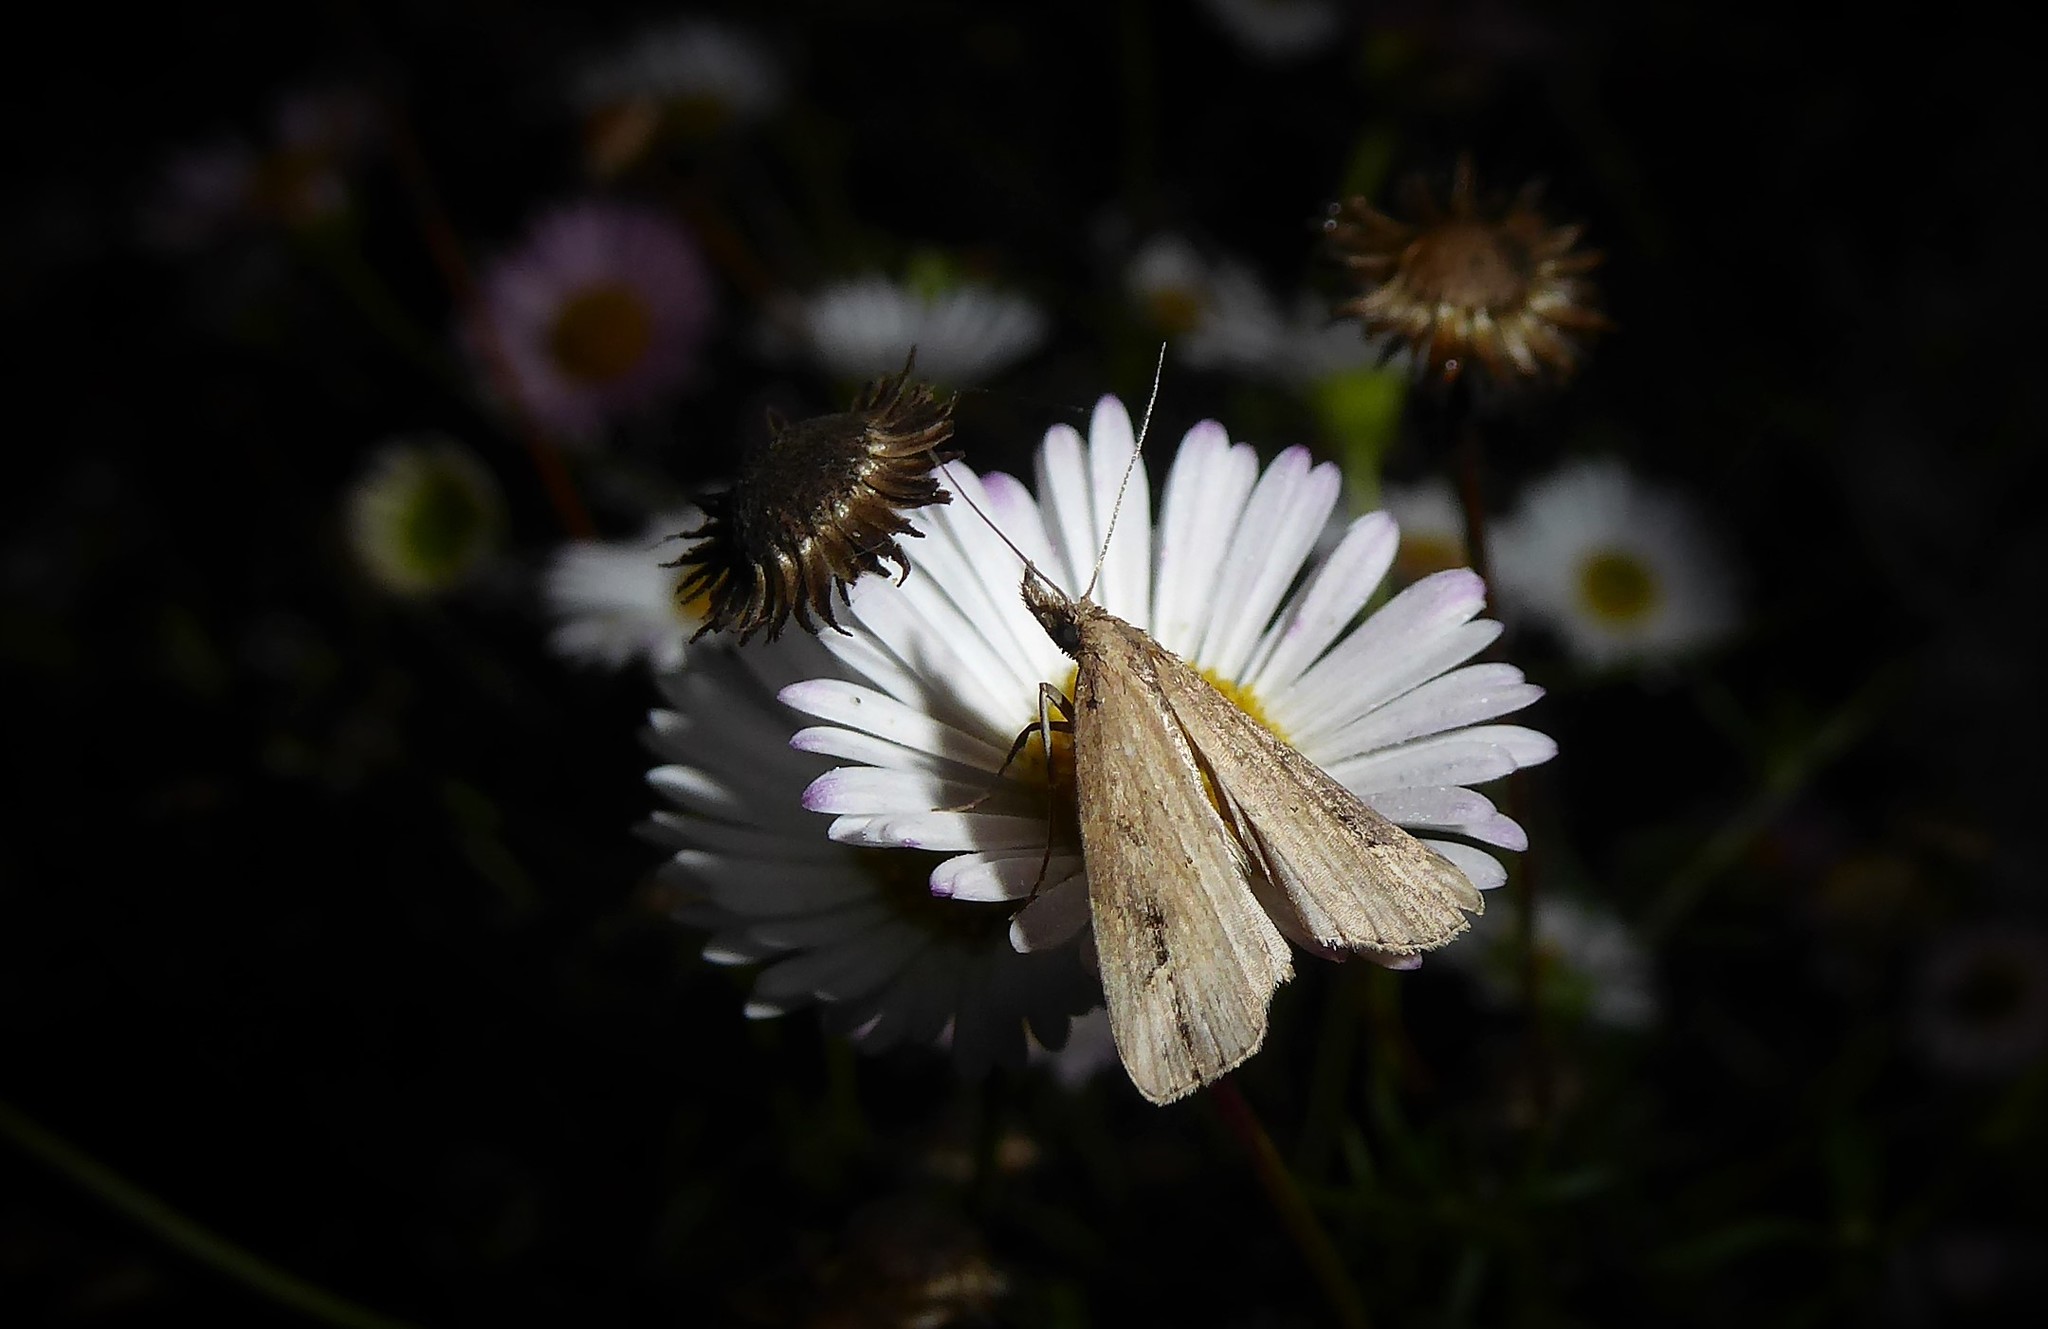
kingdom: Animalia
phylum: Arthropoda
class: Insecta
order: Lepidoptera
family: Erebidae
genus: Schrankia
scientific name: Schrankia costaestrigalis
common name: Pinion-streaked snout
